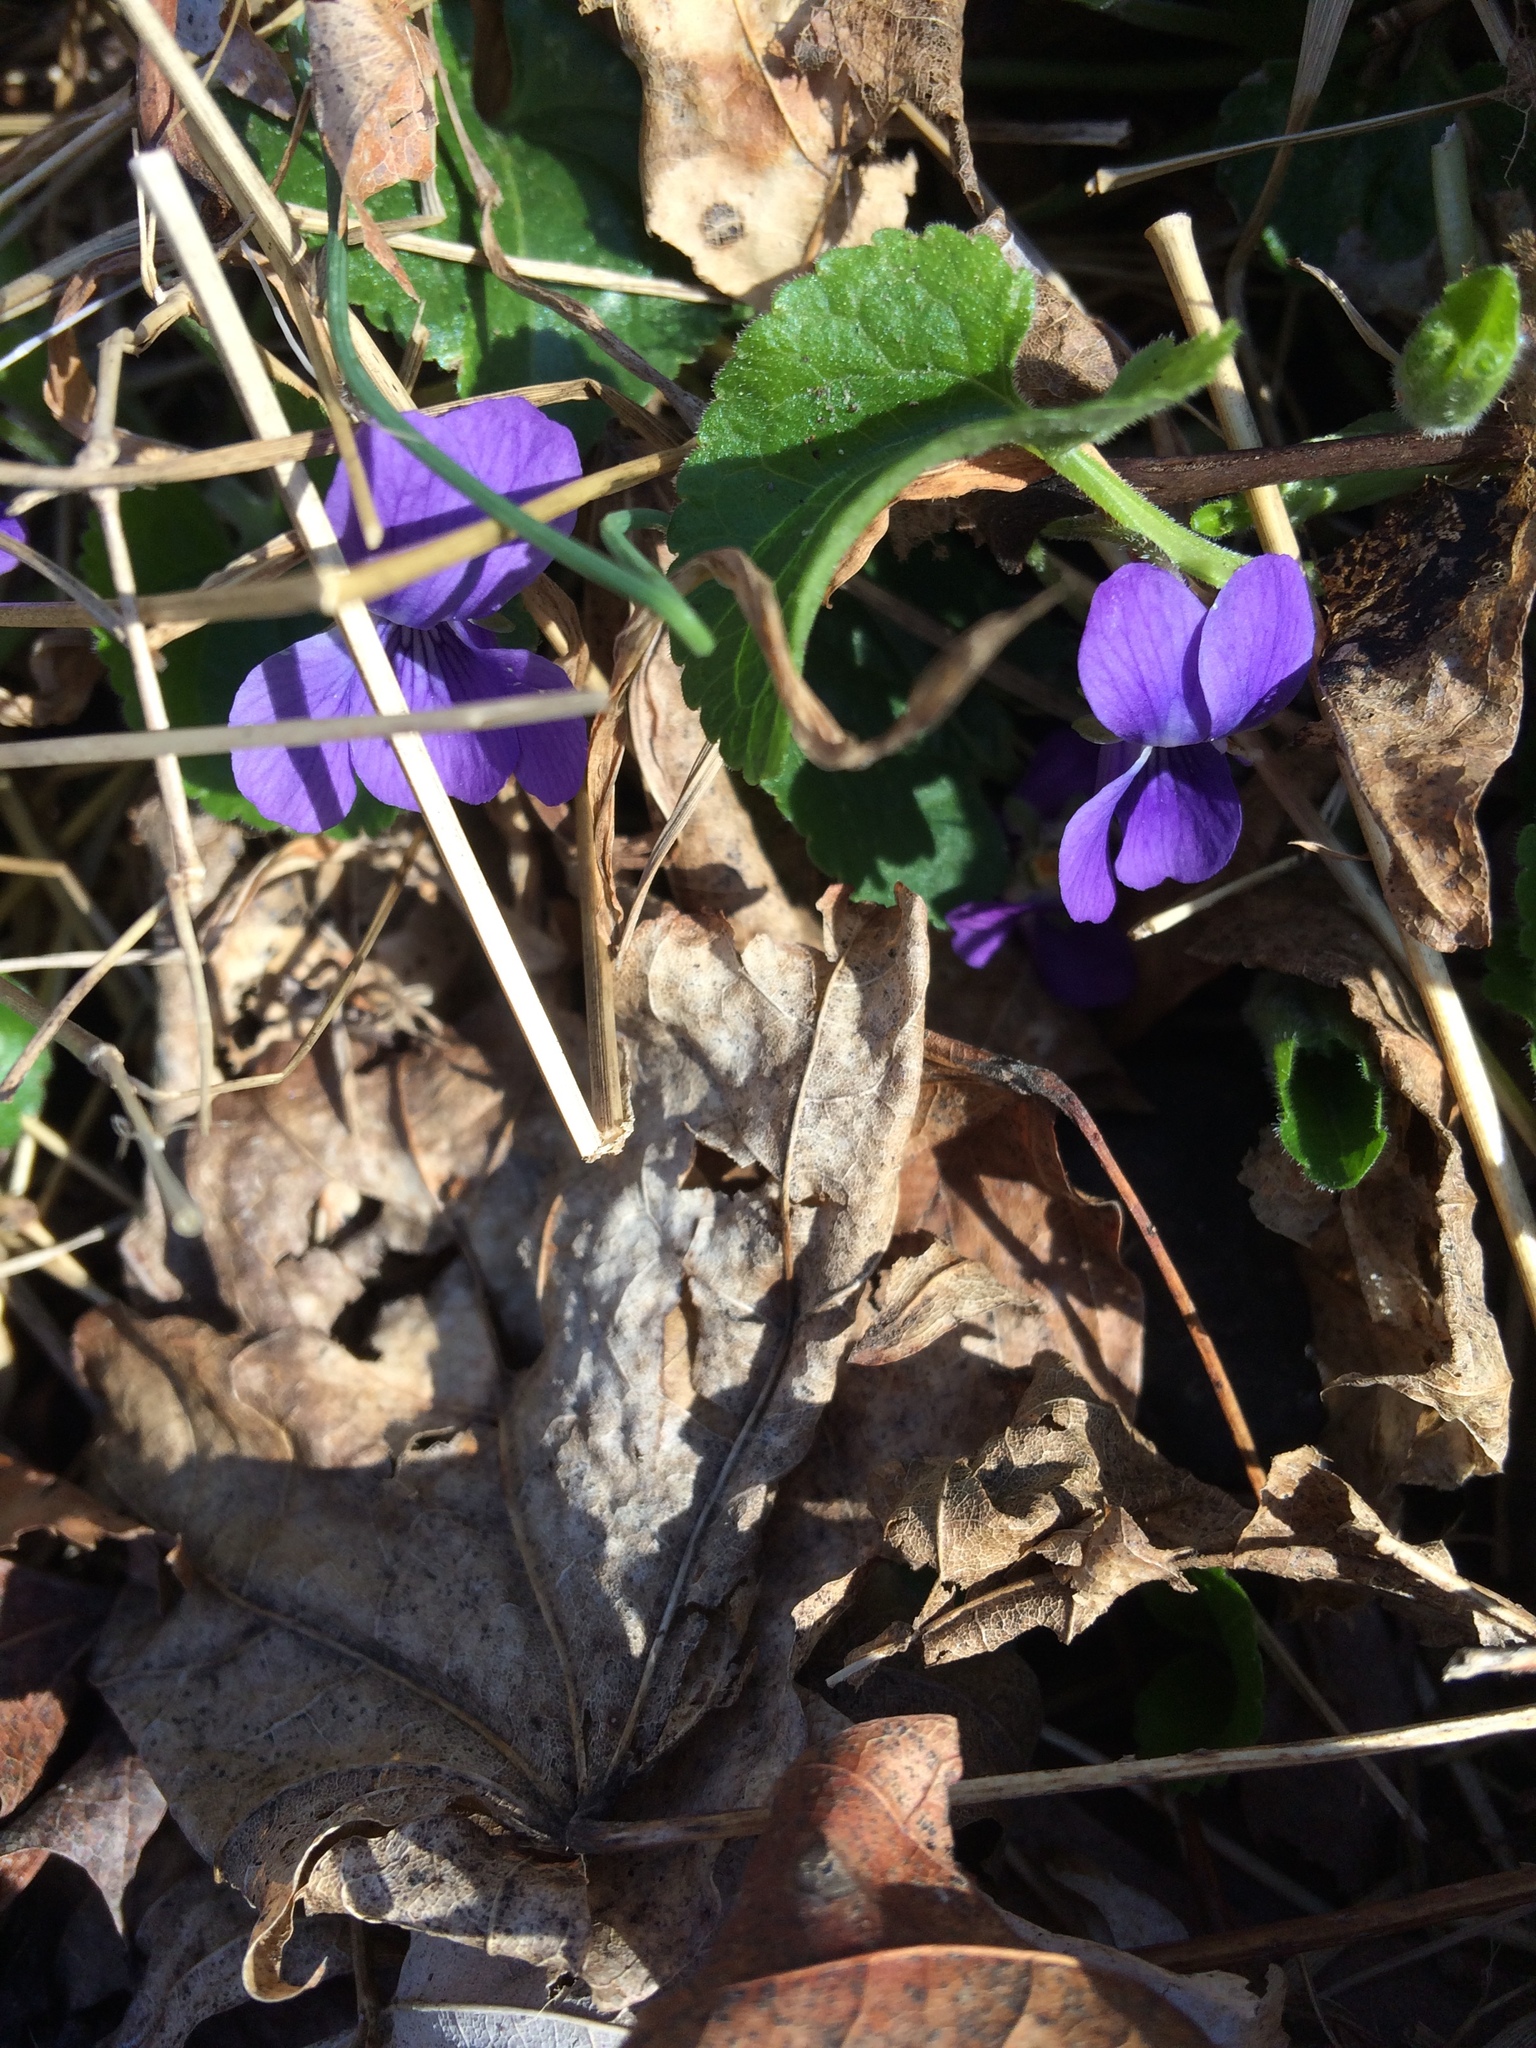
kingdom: Plantae
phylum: Tracheophyta
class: Magnoliopsida
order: Malpighiales
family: Violaceae
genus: Viola
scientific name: Viola sororia
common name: Dooryard violet
